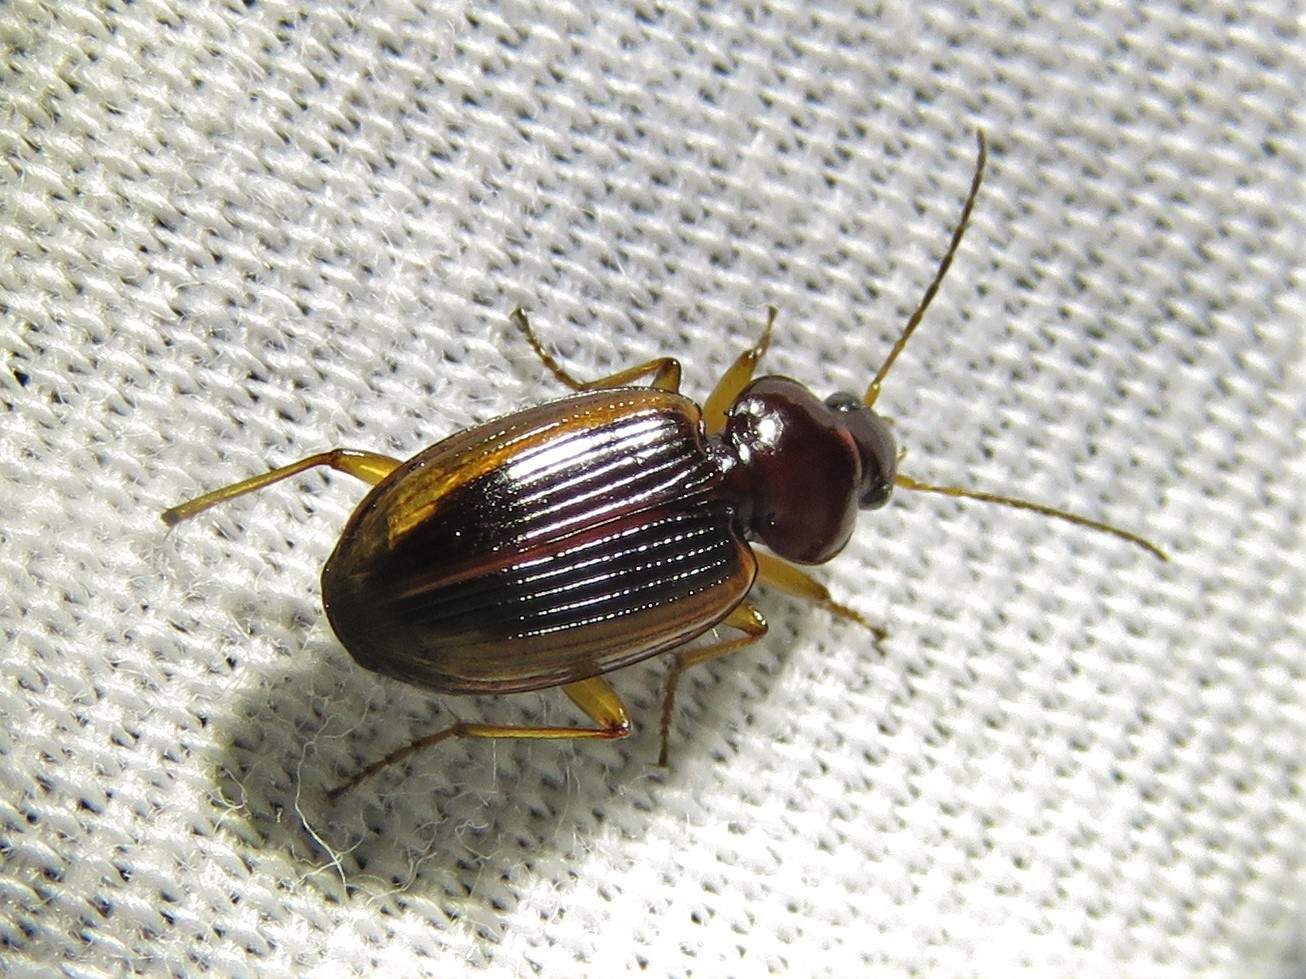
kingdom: Animalia
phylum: Arthropoda
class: Insecta
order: Coleoptera
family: Carabidae
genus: Agonum
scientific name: Agonum pallipes
